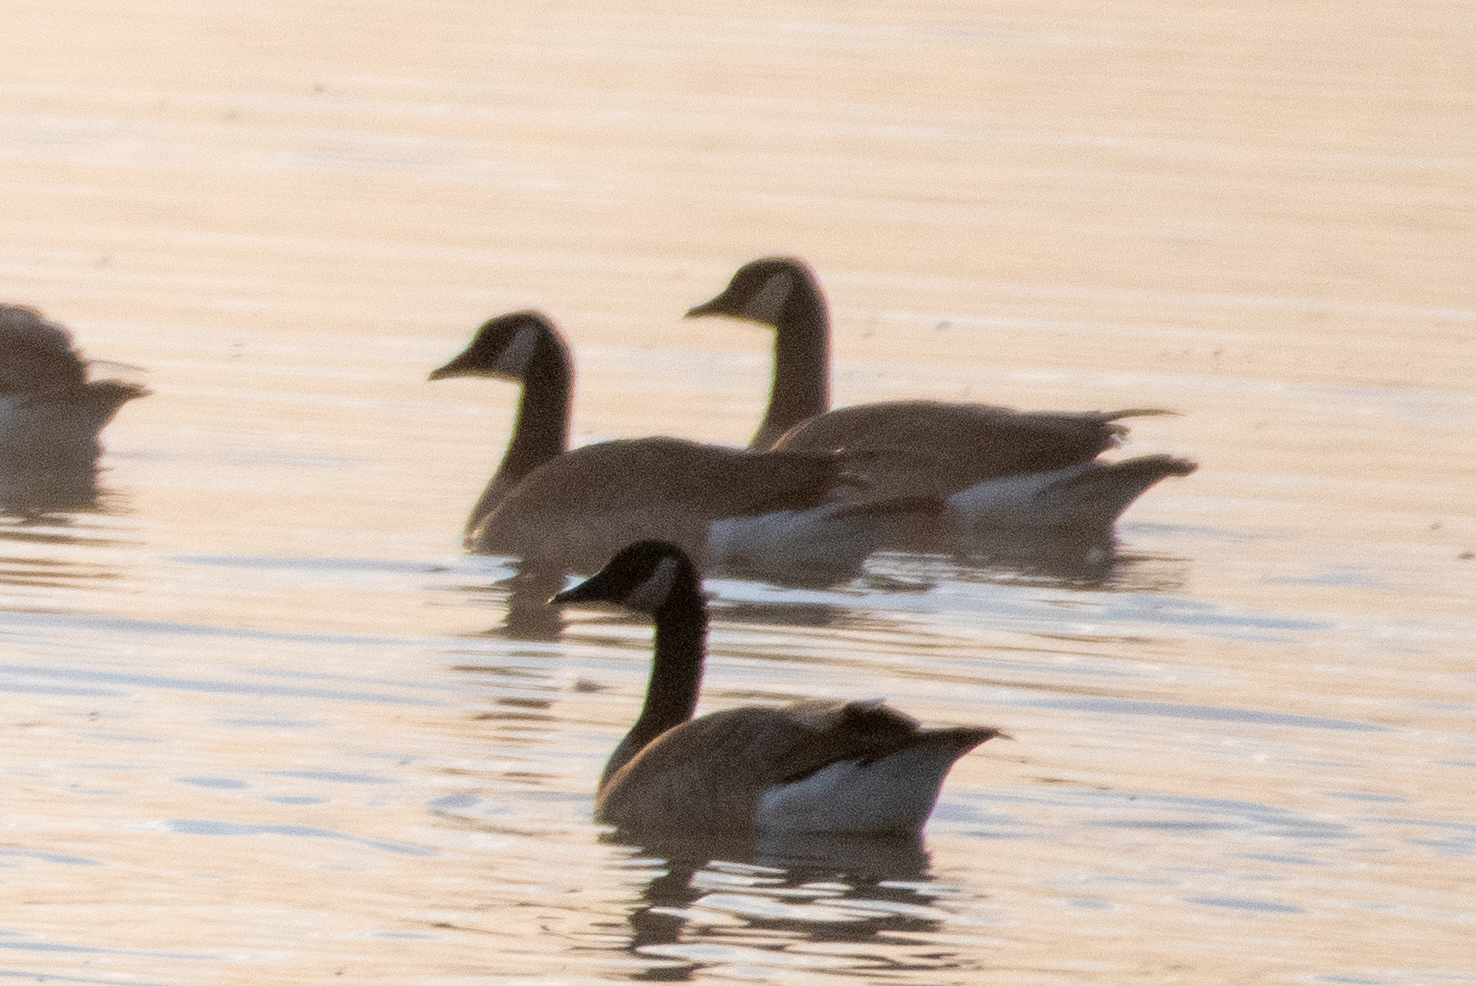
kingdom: Animalia
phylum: Chordata
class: Aves
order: Anseriformes
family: Anatidae
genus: Branta
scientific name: Branta canadensis
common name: Canada goose
